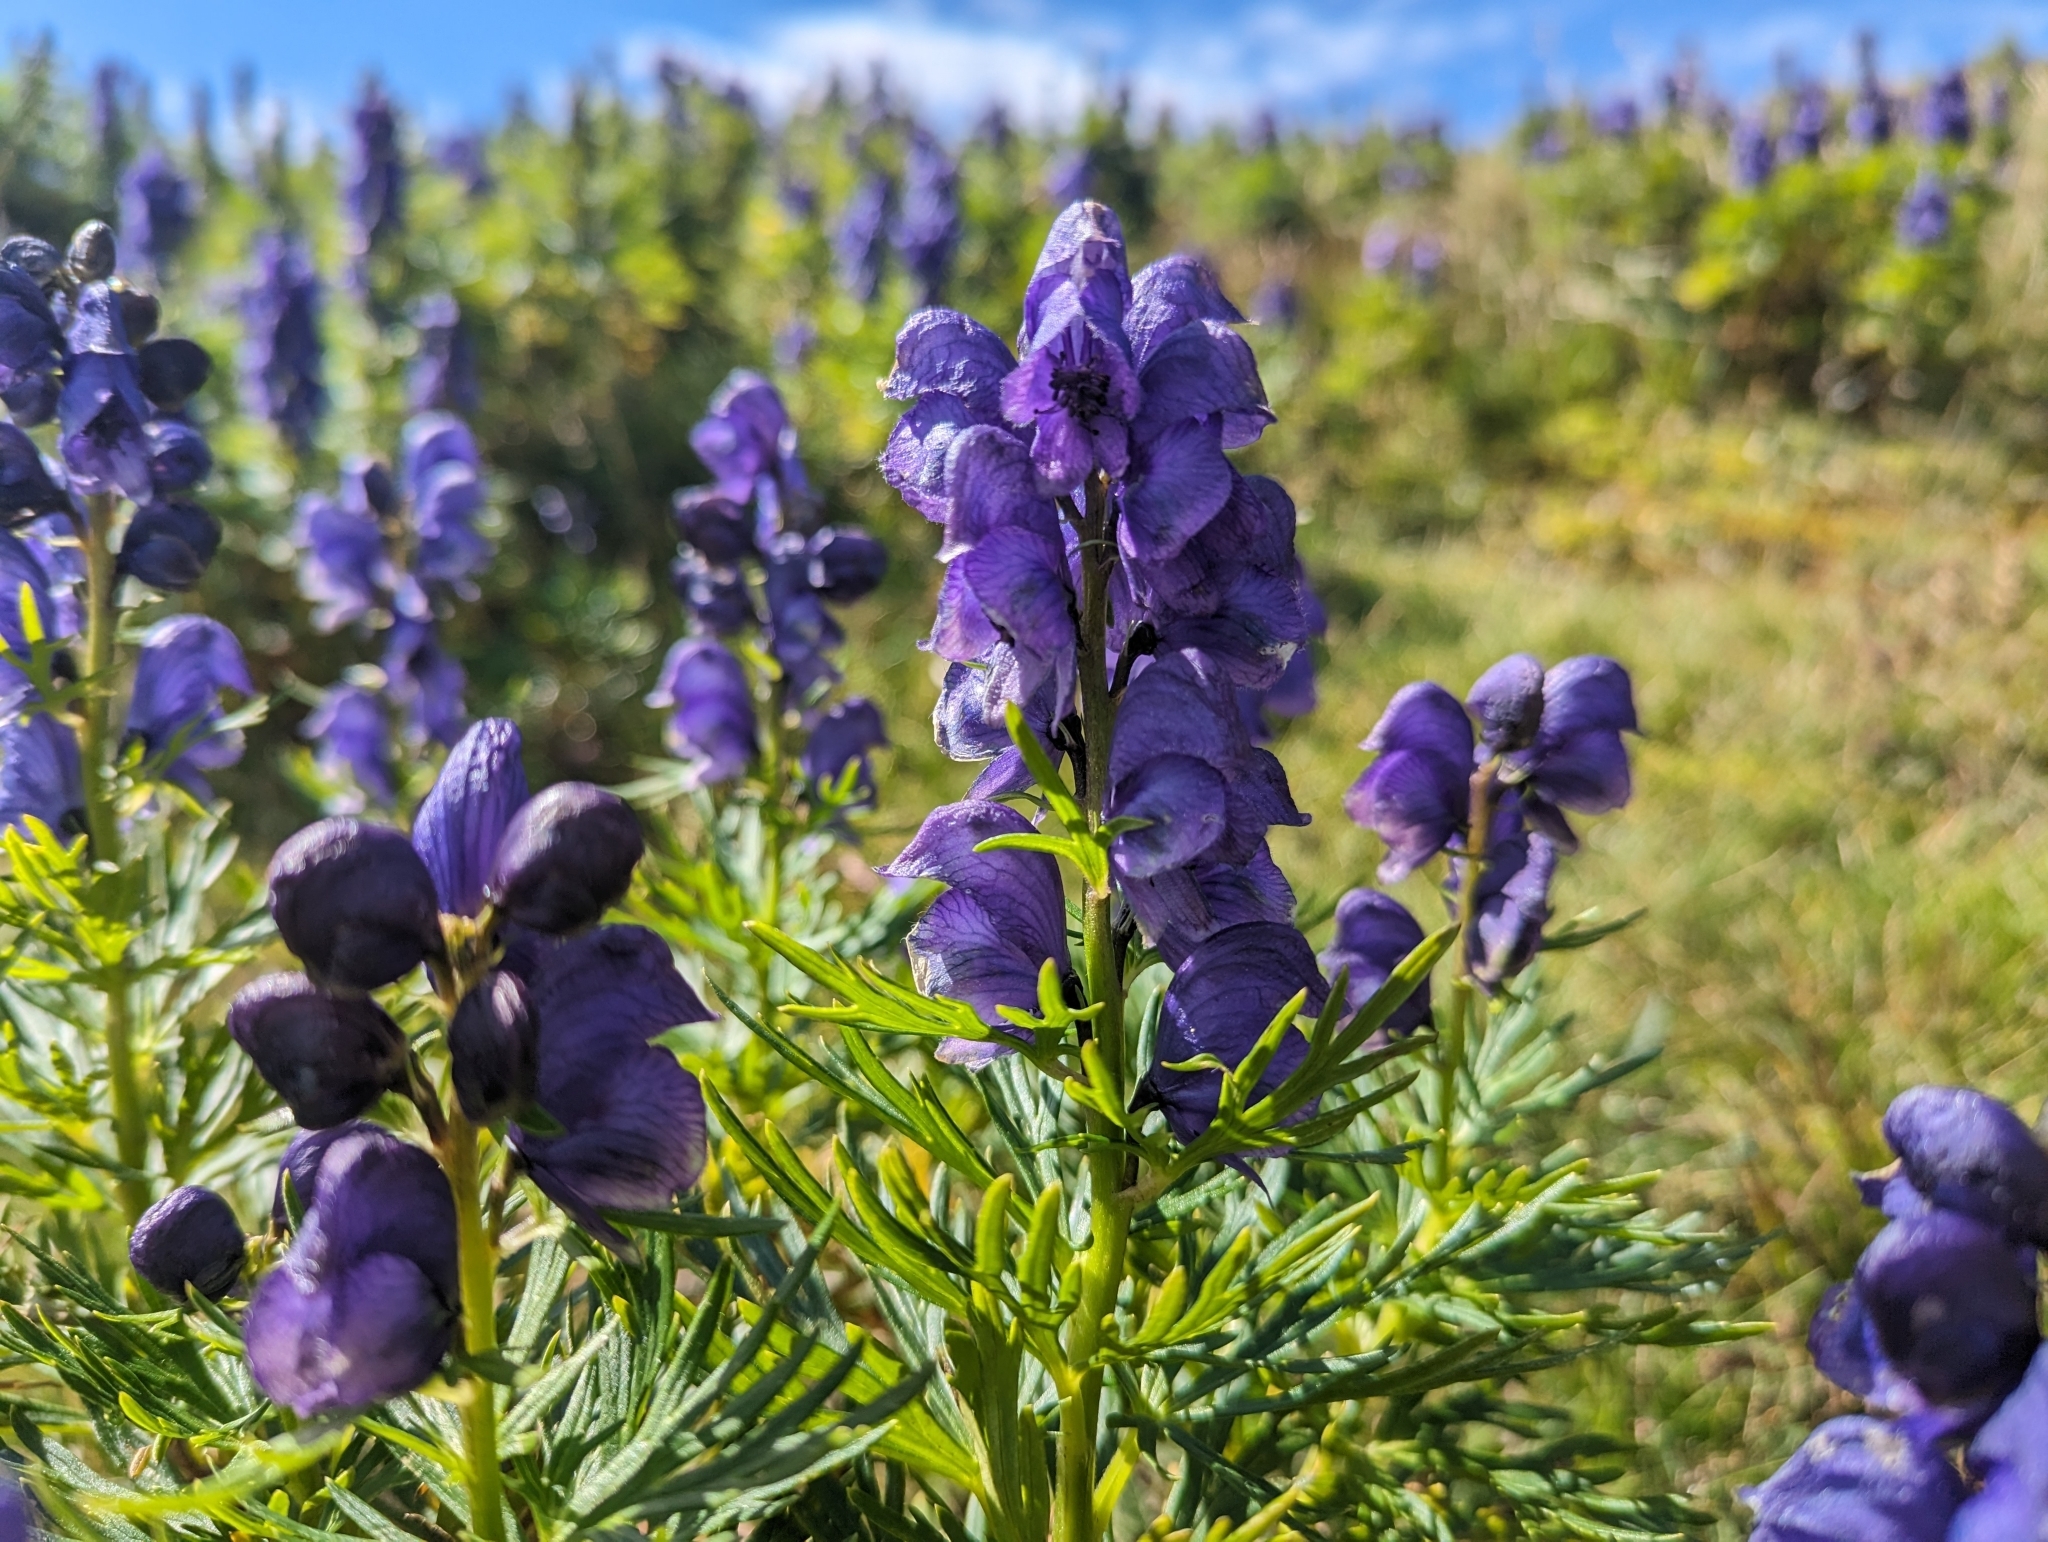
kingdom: Plantae
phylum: Tracheophyta
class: Magnoliopsida
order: Ranunculales
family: Ranunculaceae
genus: Aconitum
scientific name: Aconitum tauricum
